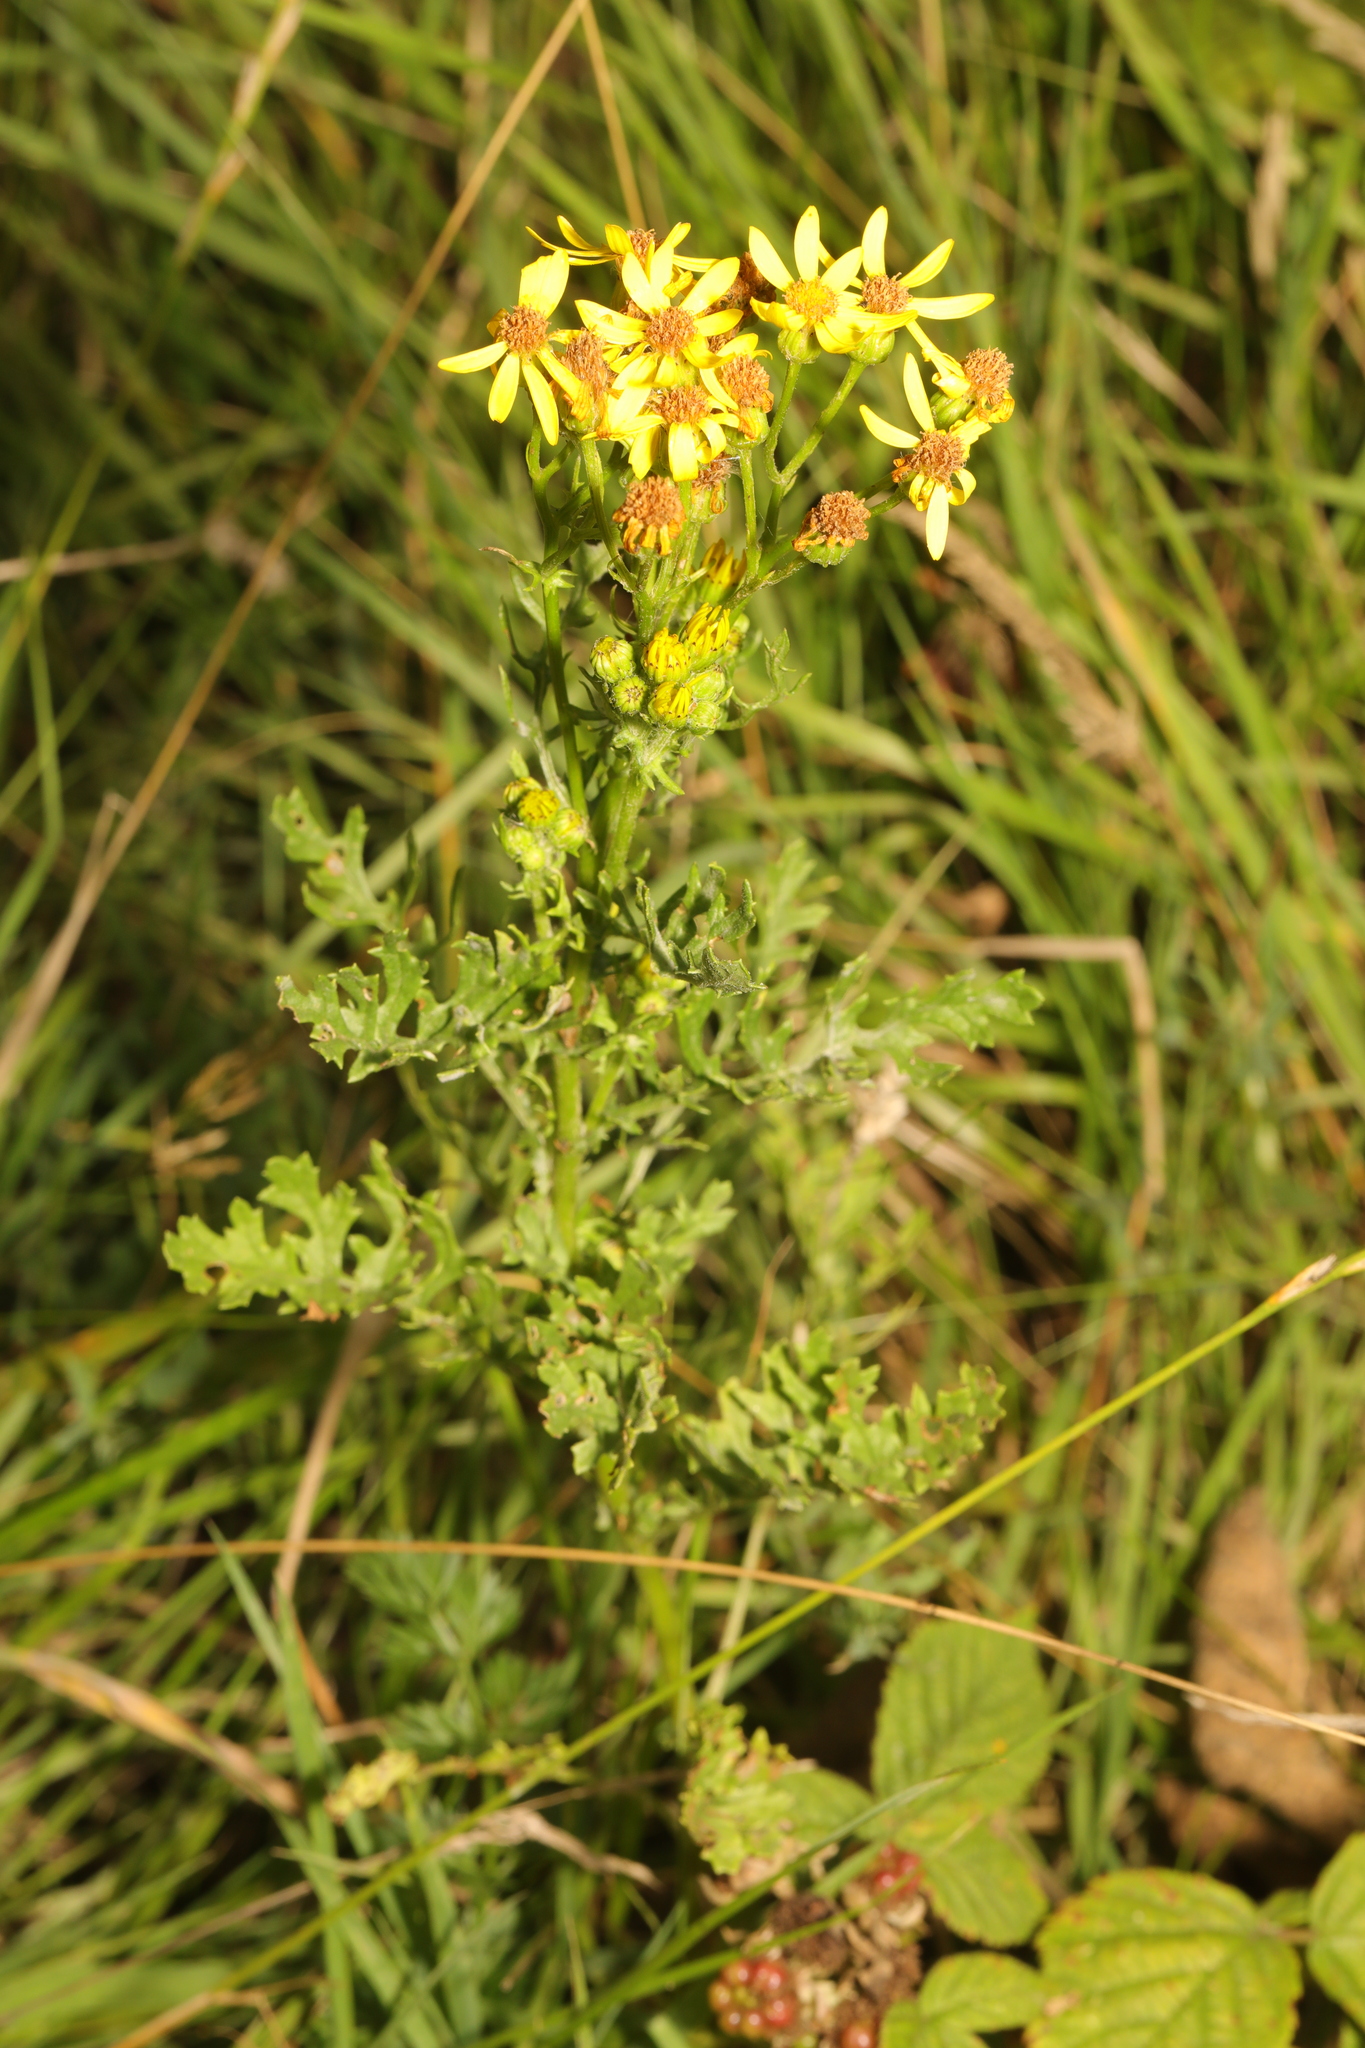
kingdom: Plantae
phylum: Tracheophyta
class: Magnoliopsida
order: Asterales
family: Asteraceae
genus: Jacobaea
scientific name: Jacobaea vulgaris
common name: Stinking willie
